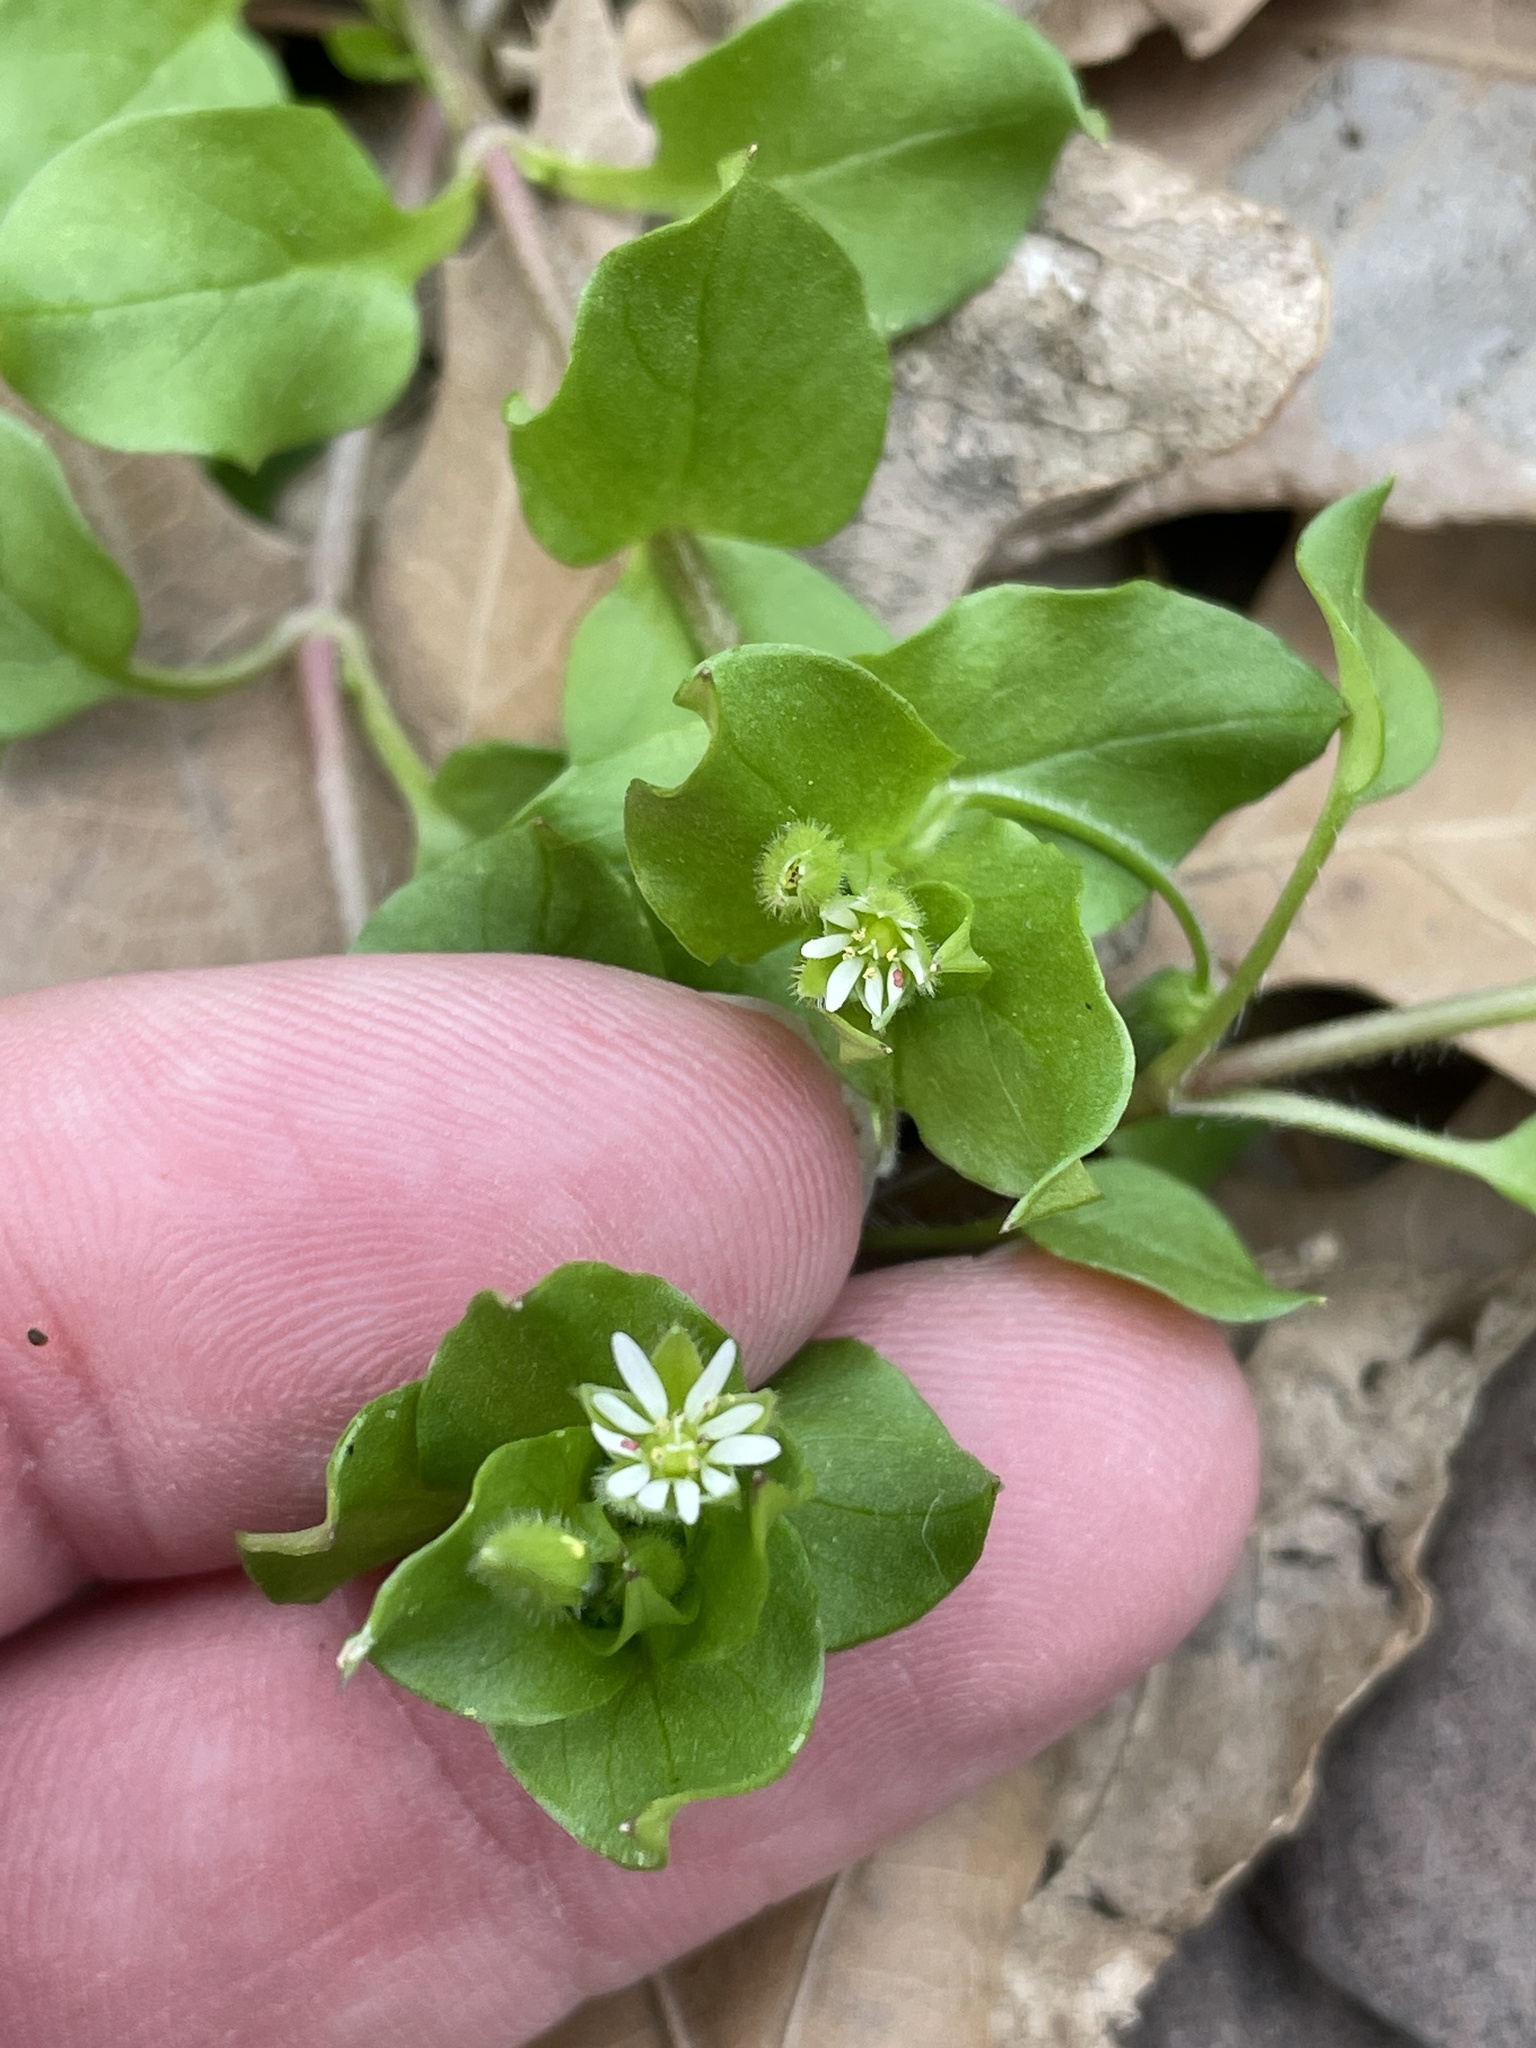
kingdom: Plantae
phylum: Tracheophyta
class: Magnoliopsida
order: Caryophyllales
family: Caryophyllaceae
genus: Stellaria
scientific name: Stellaria media
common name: Common chickweed
